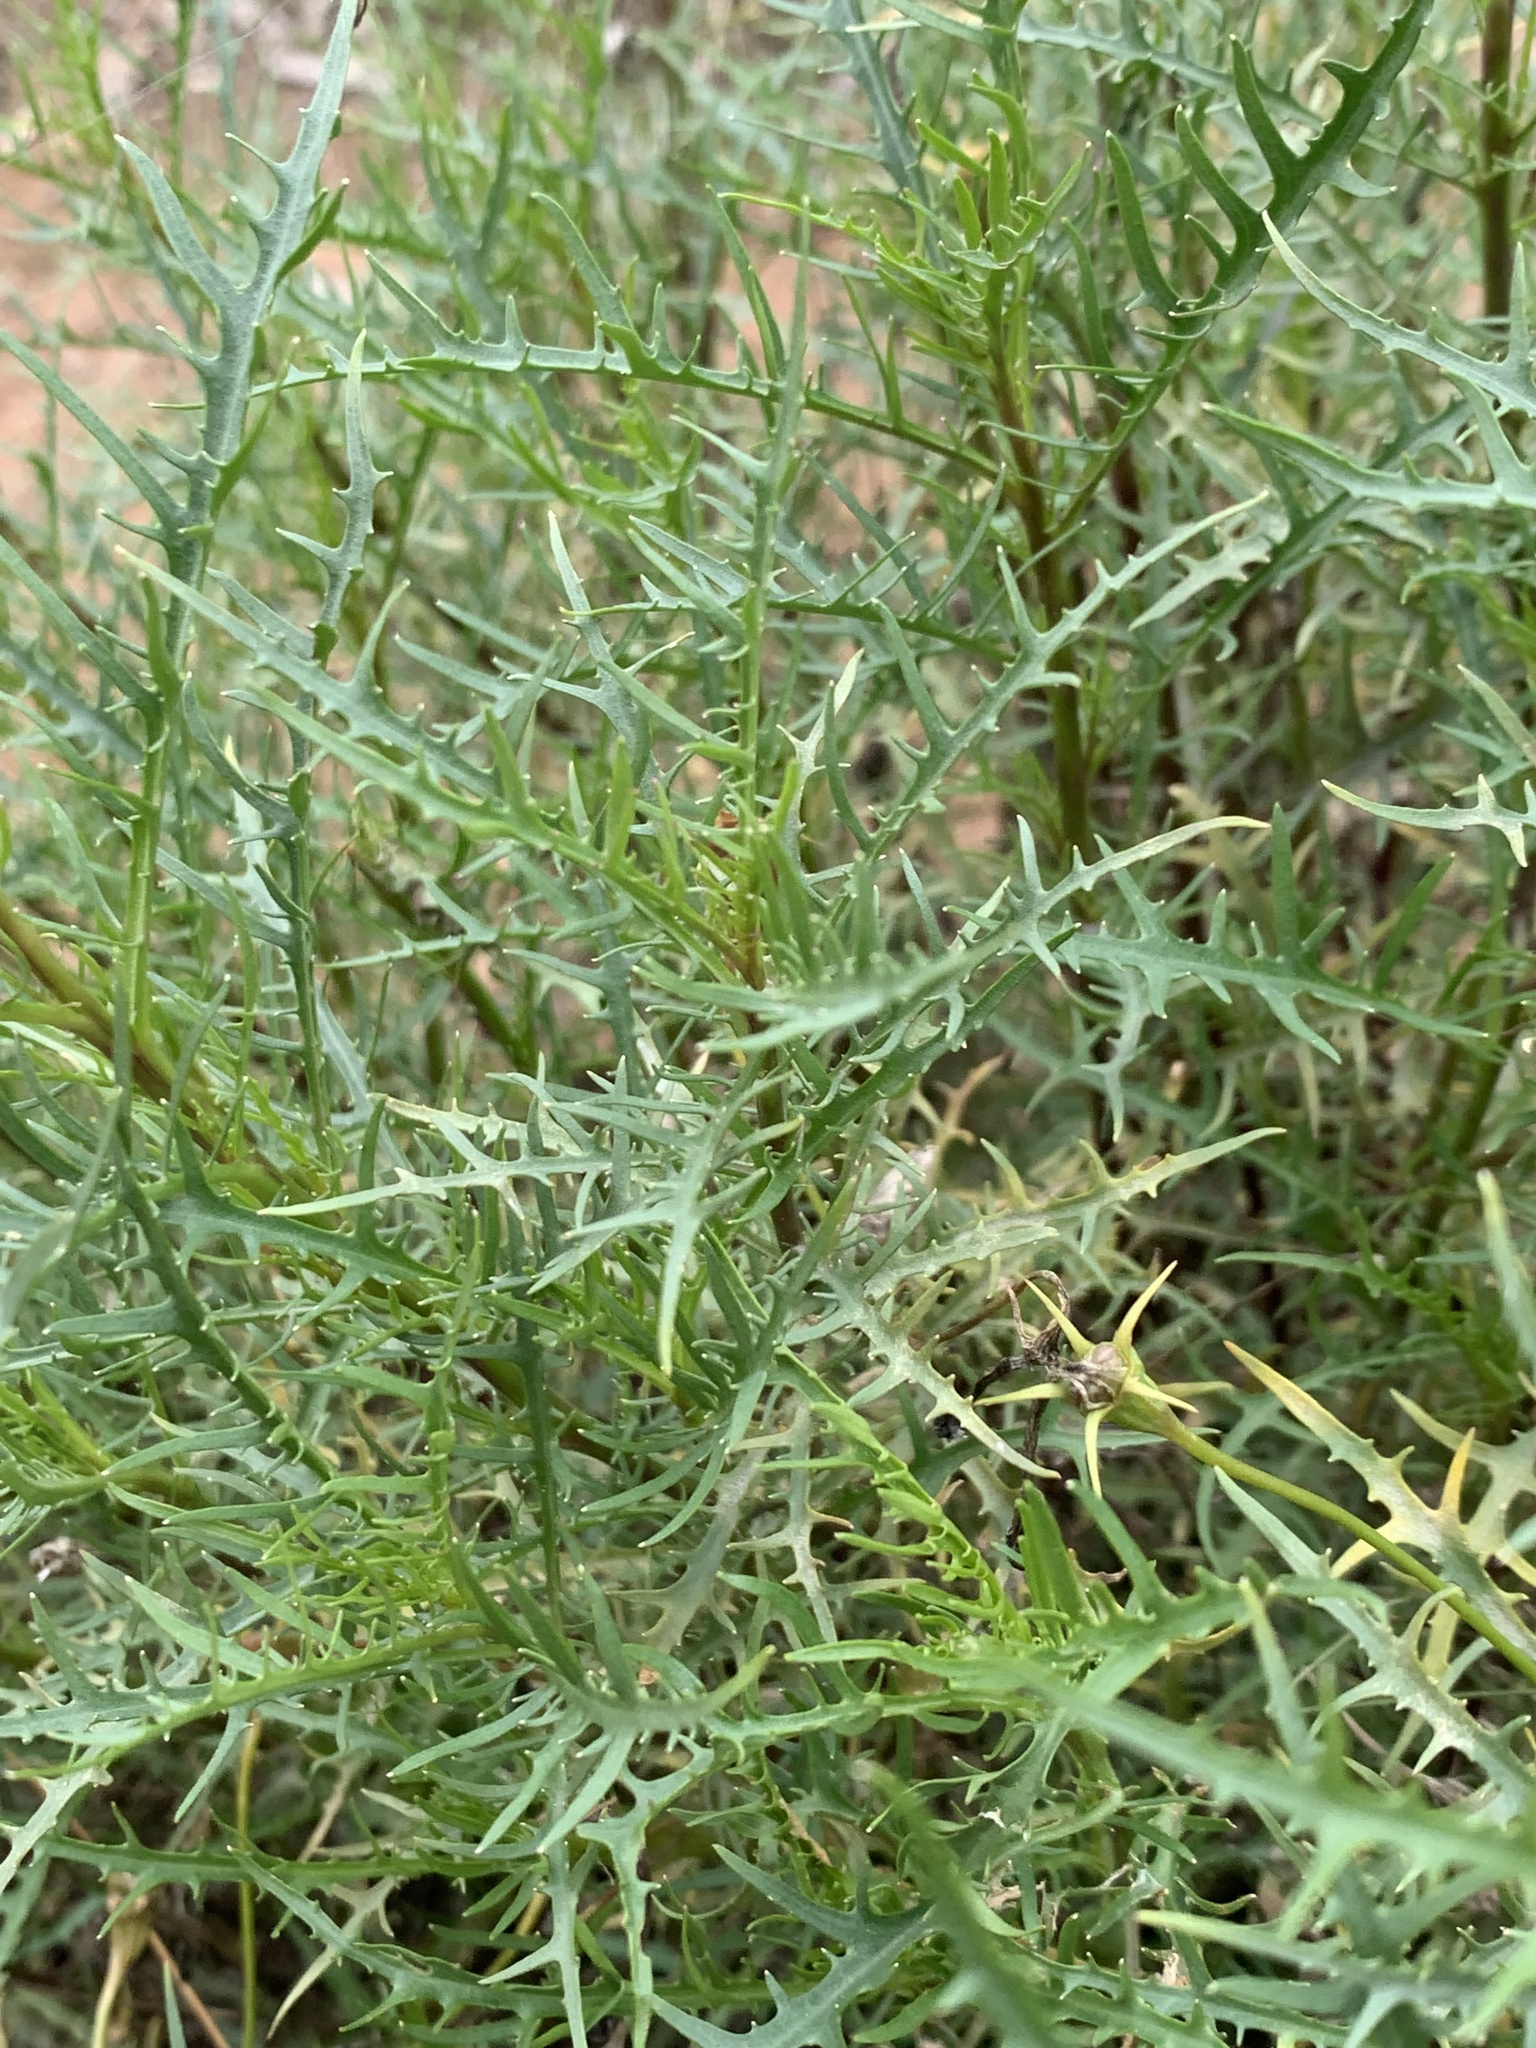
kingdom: Plantae
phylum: Tracheophyta
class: Magnoliopsida
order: Asterales
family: Campanulaceae
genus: Lithotoma
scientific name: Lithotoma axillaris
